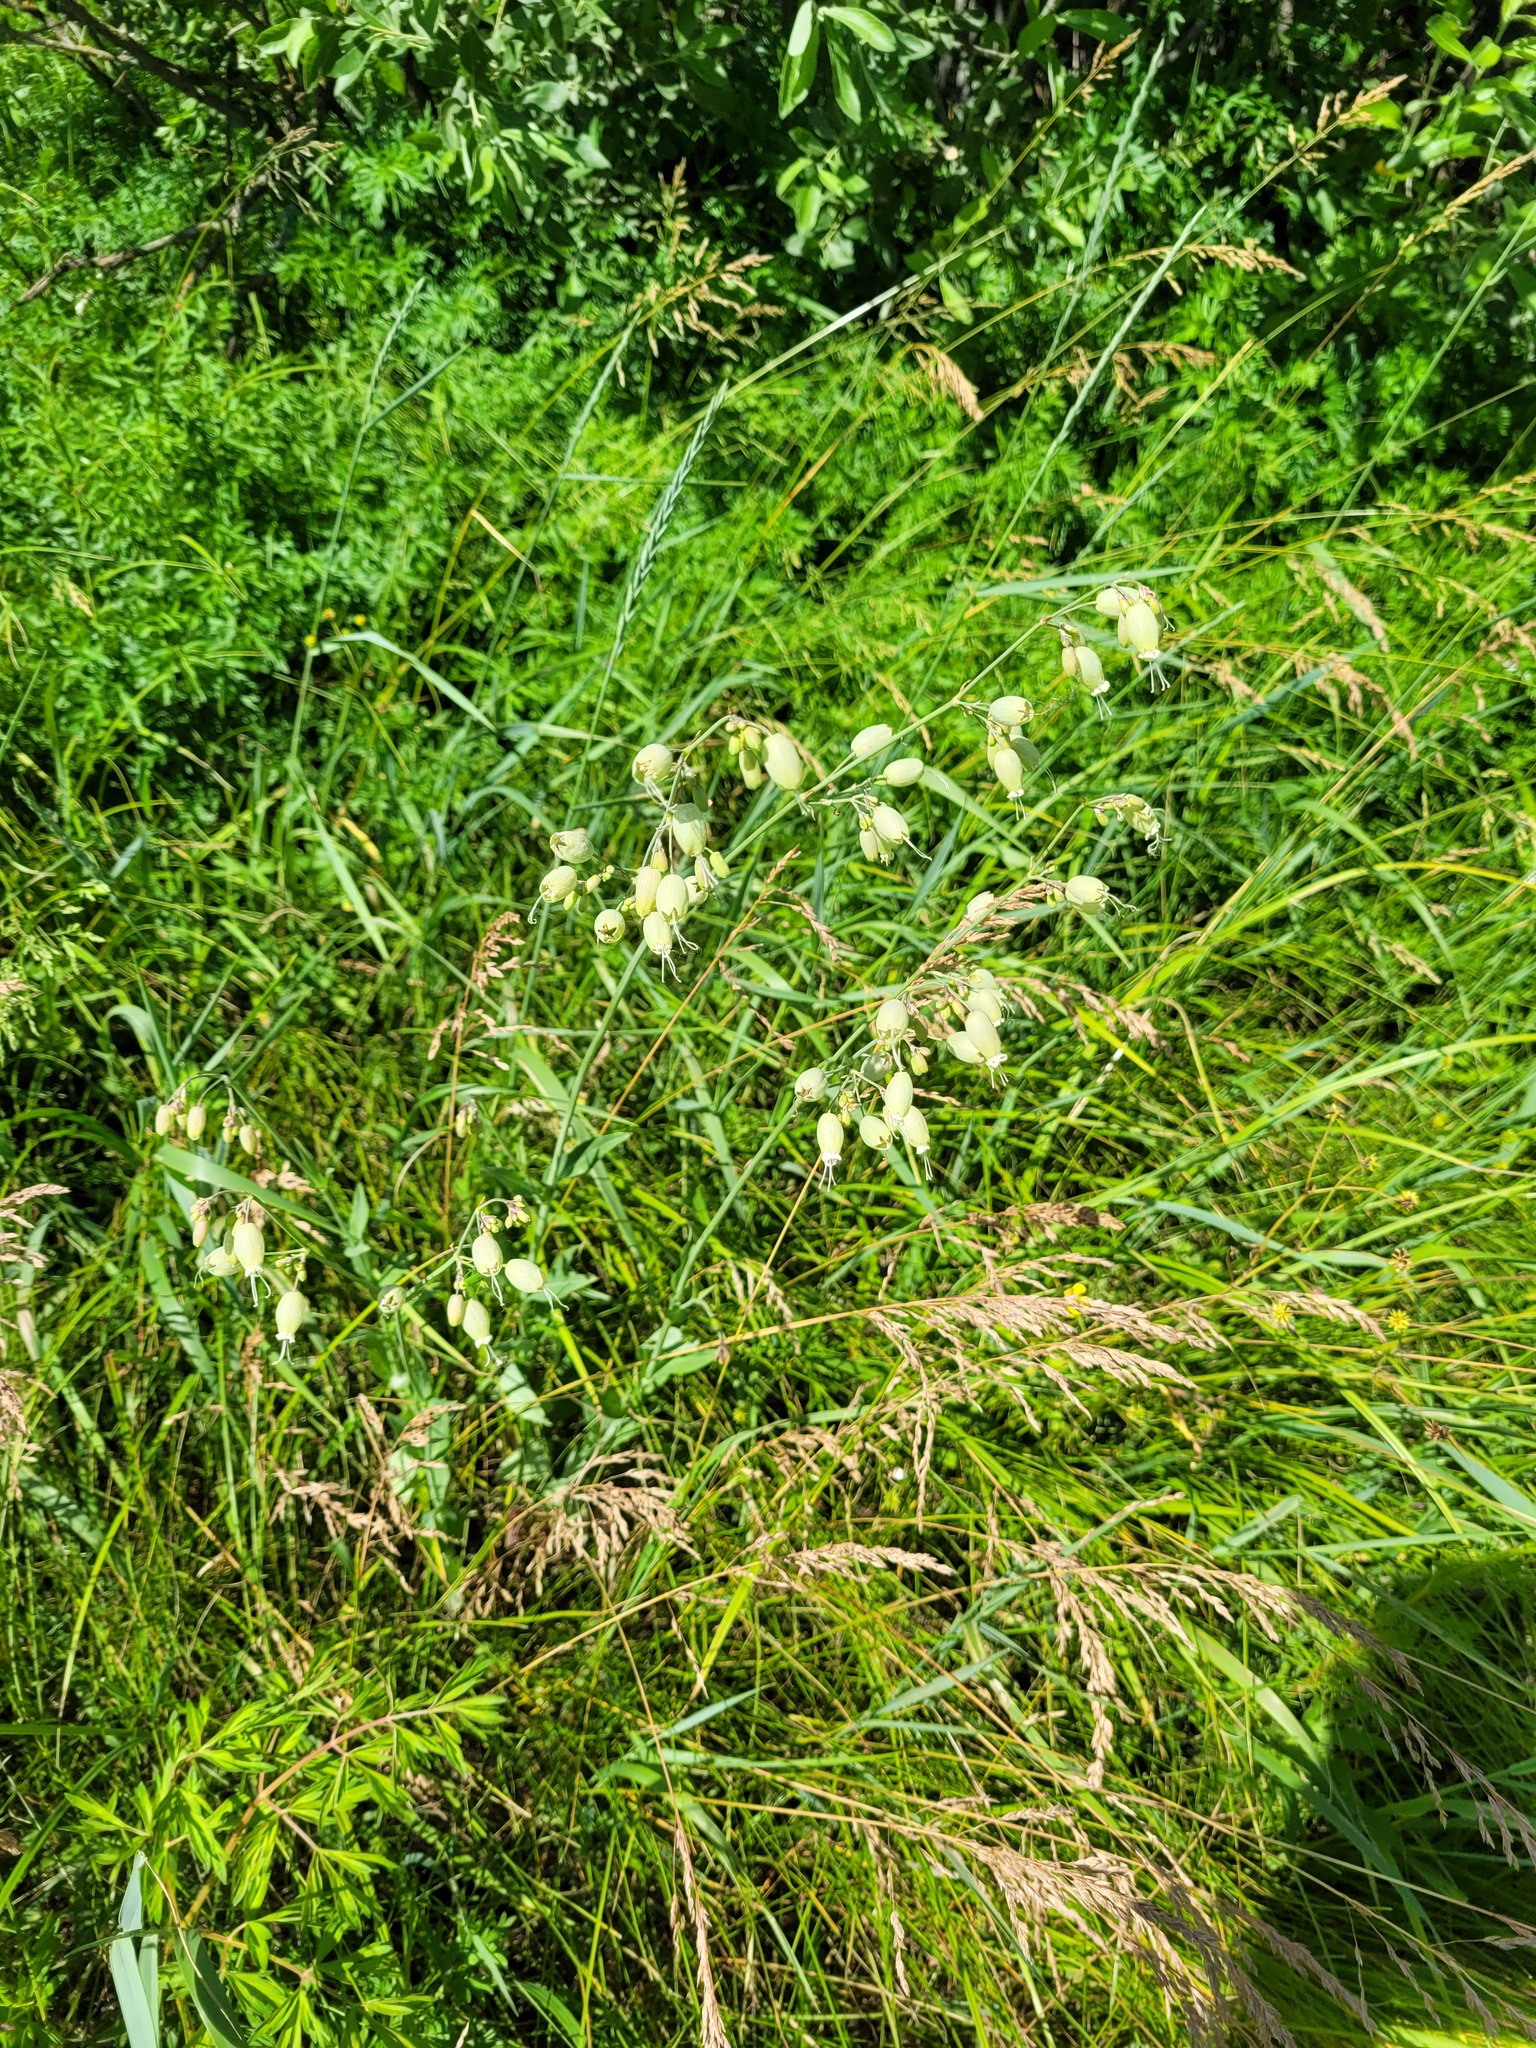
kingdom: Plantae
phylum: Tracheophyta
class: Magnoliopsida
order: Caryophyllales
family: Caryophyllaceae
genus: Silene
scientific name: Silene vulgaris
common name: Bladder campion
